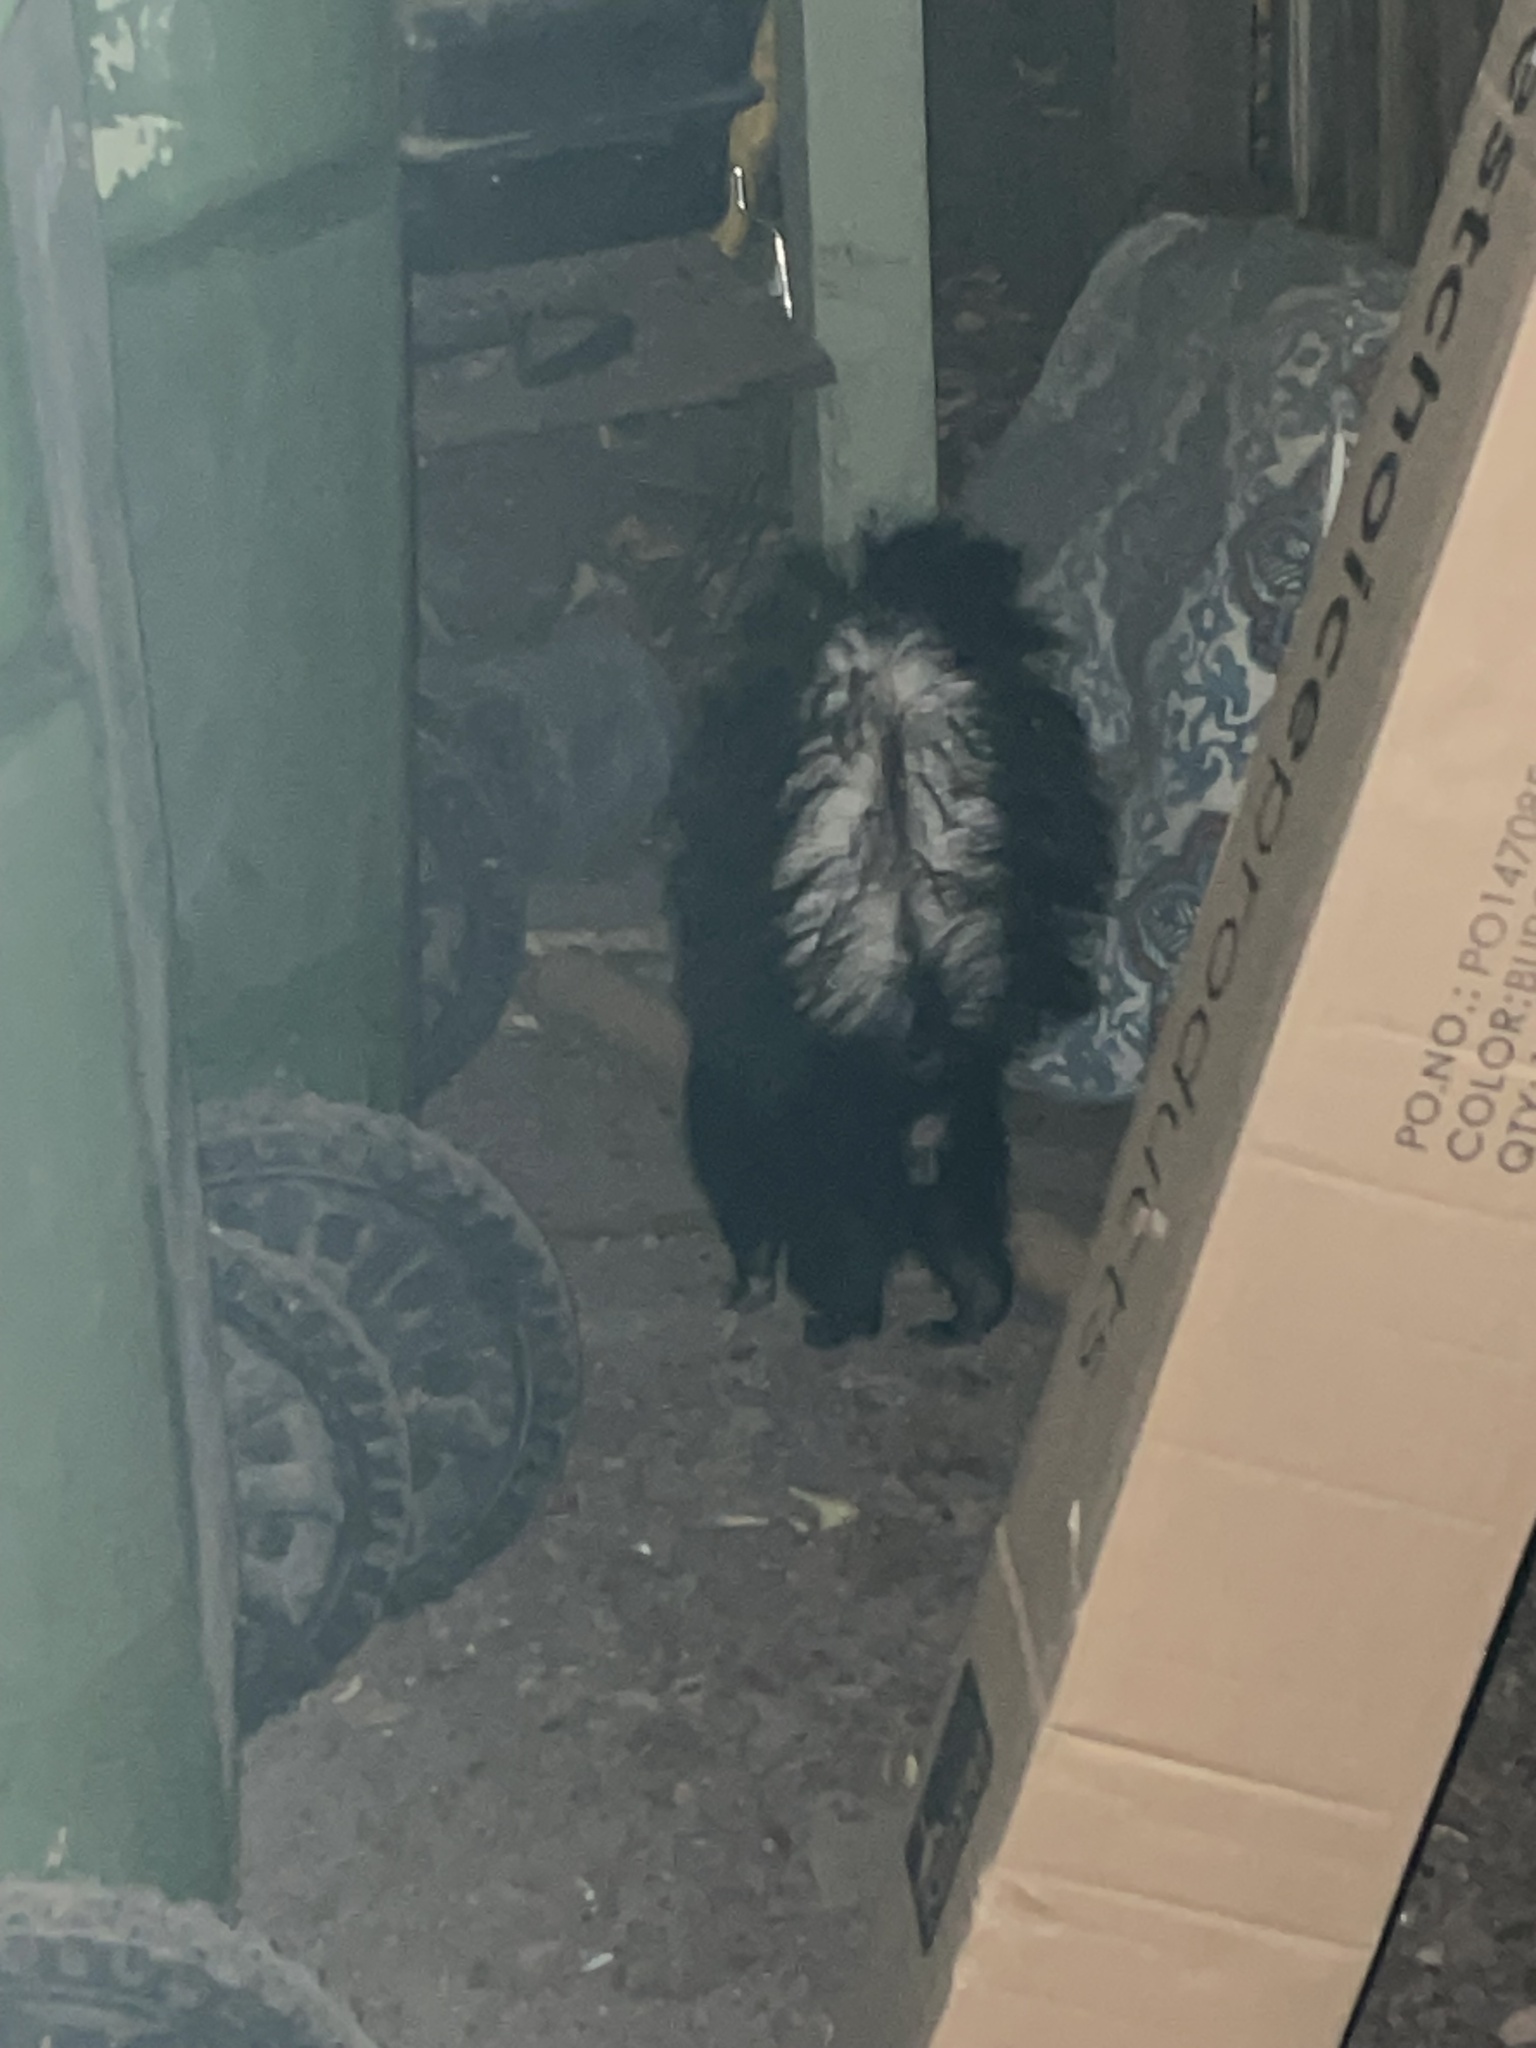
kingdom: Animalia
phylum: Chordata
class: Mammalia
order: Carnivora
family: Mephitidae
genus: Mephitis
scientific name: Mephitis mephitis
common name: Striped skunk
